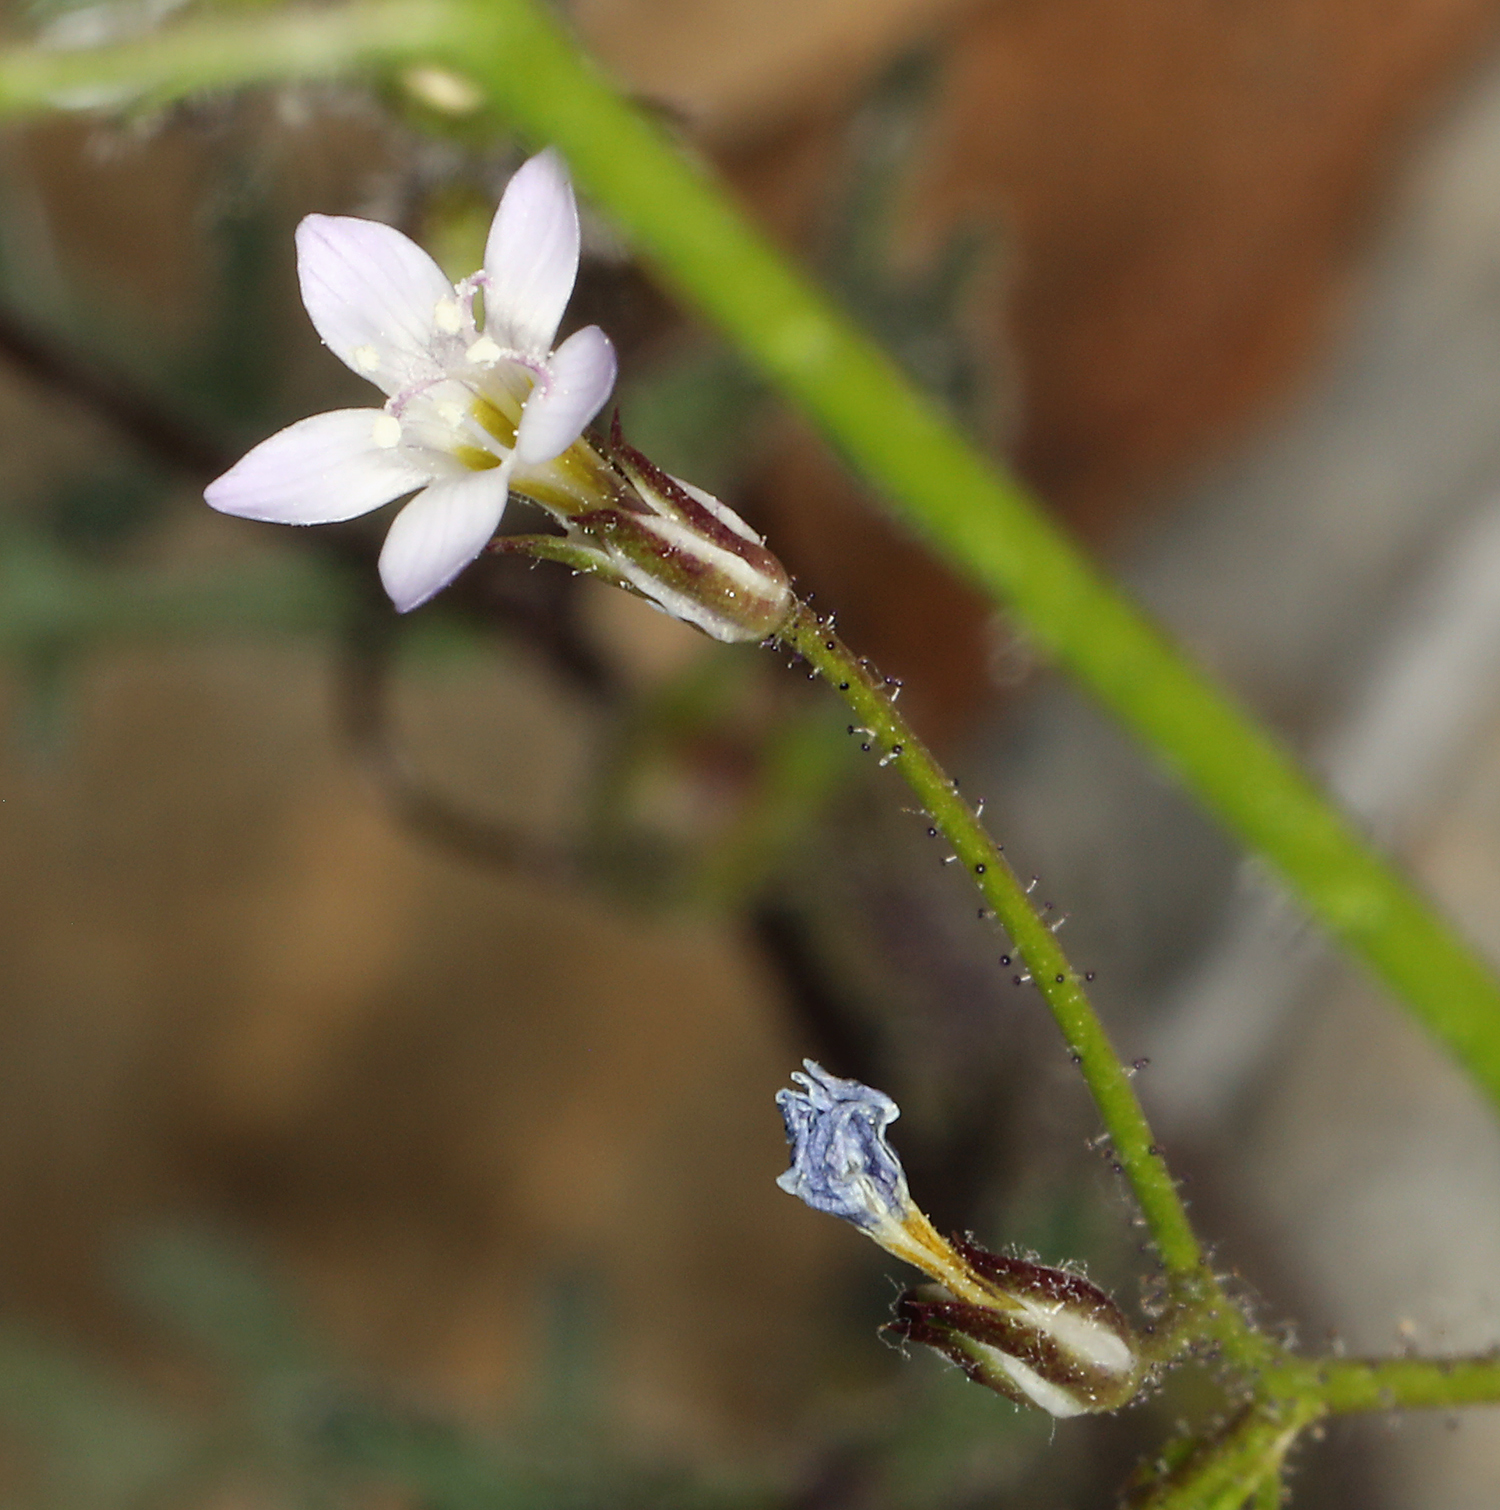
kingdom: Plantae
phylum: Tracheophyta
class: Magnoliopsida
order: Ericales
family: Polemoniaceae
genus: Gilia
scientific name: Gilia clokeyi
